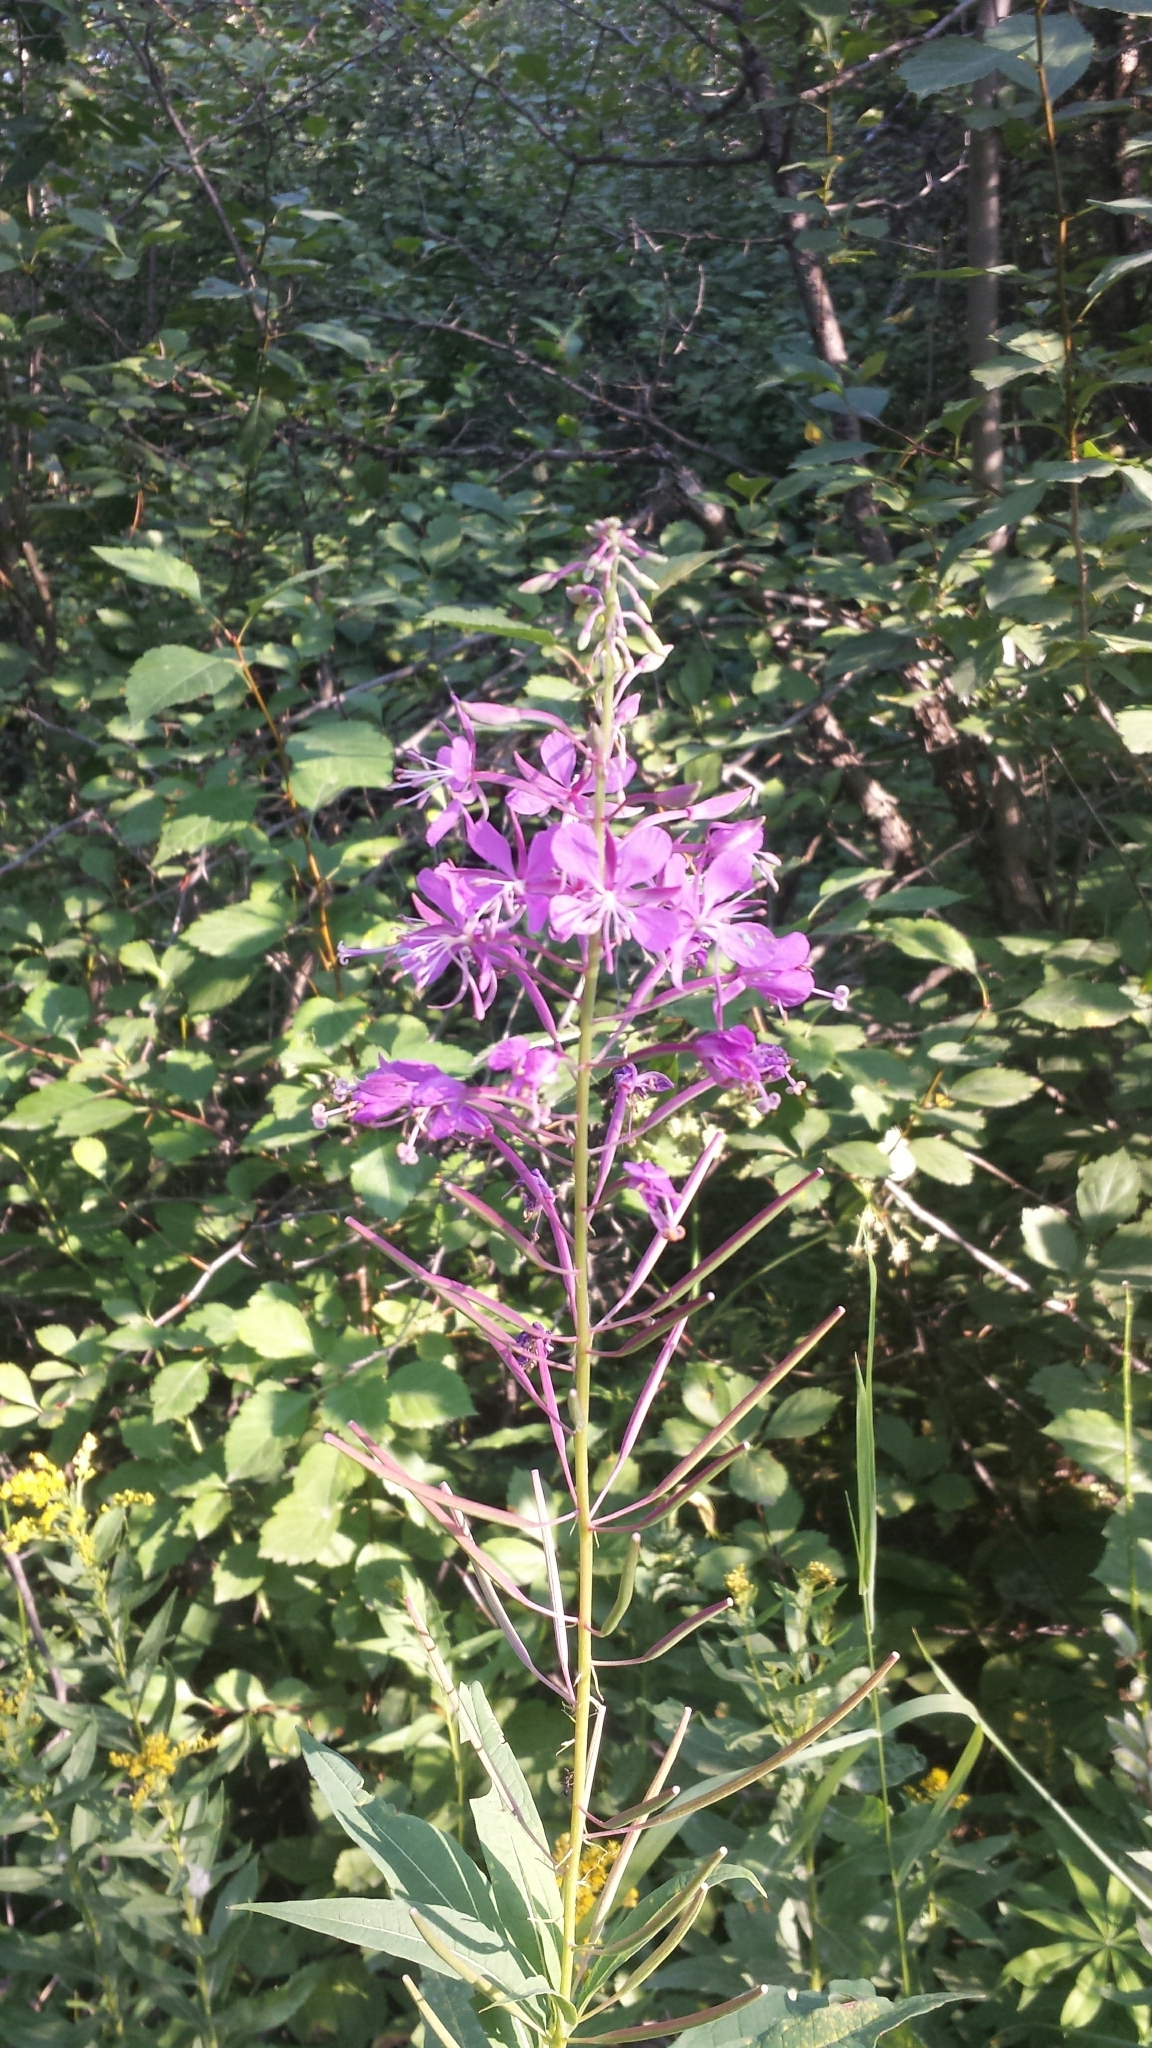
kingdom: Plantae
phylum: Tracheophyta
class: Magnoliopsida
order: Myrtales
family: Onagraceae
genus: Chamaenerion
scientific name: Chamaenerion angustifolium
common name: Fireweed
